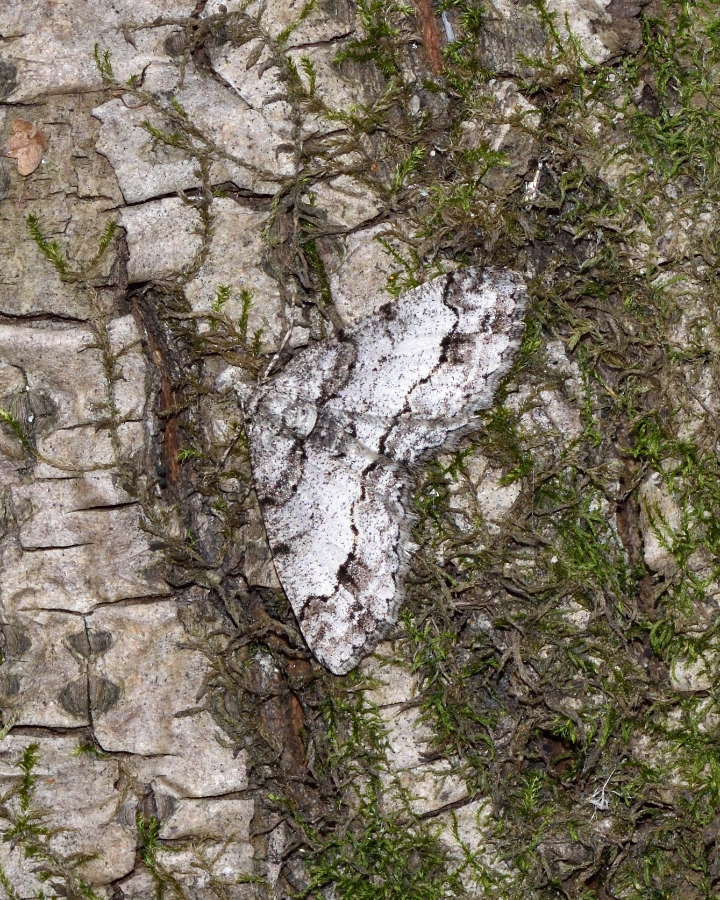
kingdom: Animalia
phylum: Arthropoda
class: Insecta
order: Lepidoptera
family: Geometridae
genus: Paradarisa
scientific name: Paradarisa consonaria
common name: Square spot
